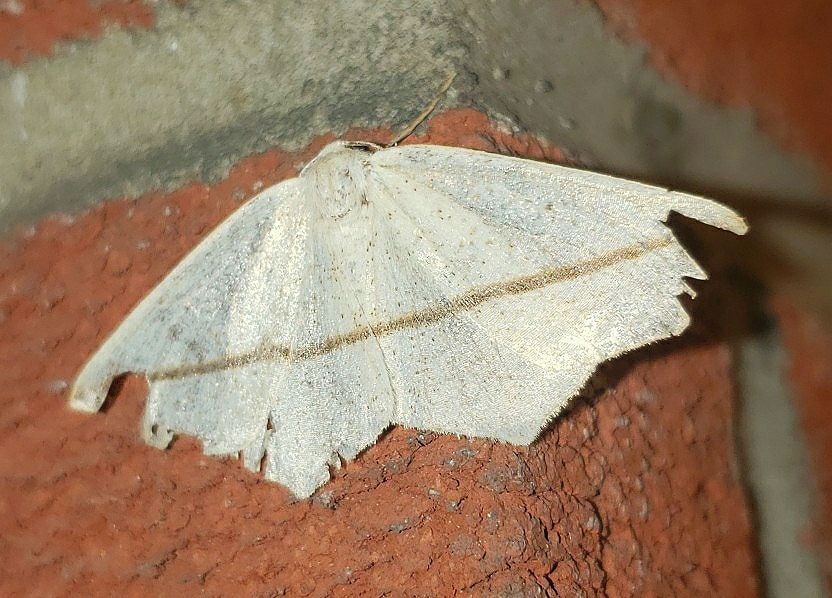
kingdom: Animalia
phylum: Arthropoda
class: Insecta
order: Lepidoptera
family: Geometridae
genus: Tetracis
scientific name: Tetracis crocallata
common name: Yellow slant-line
